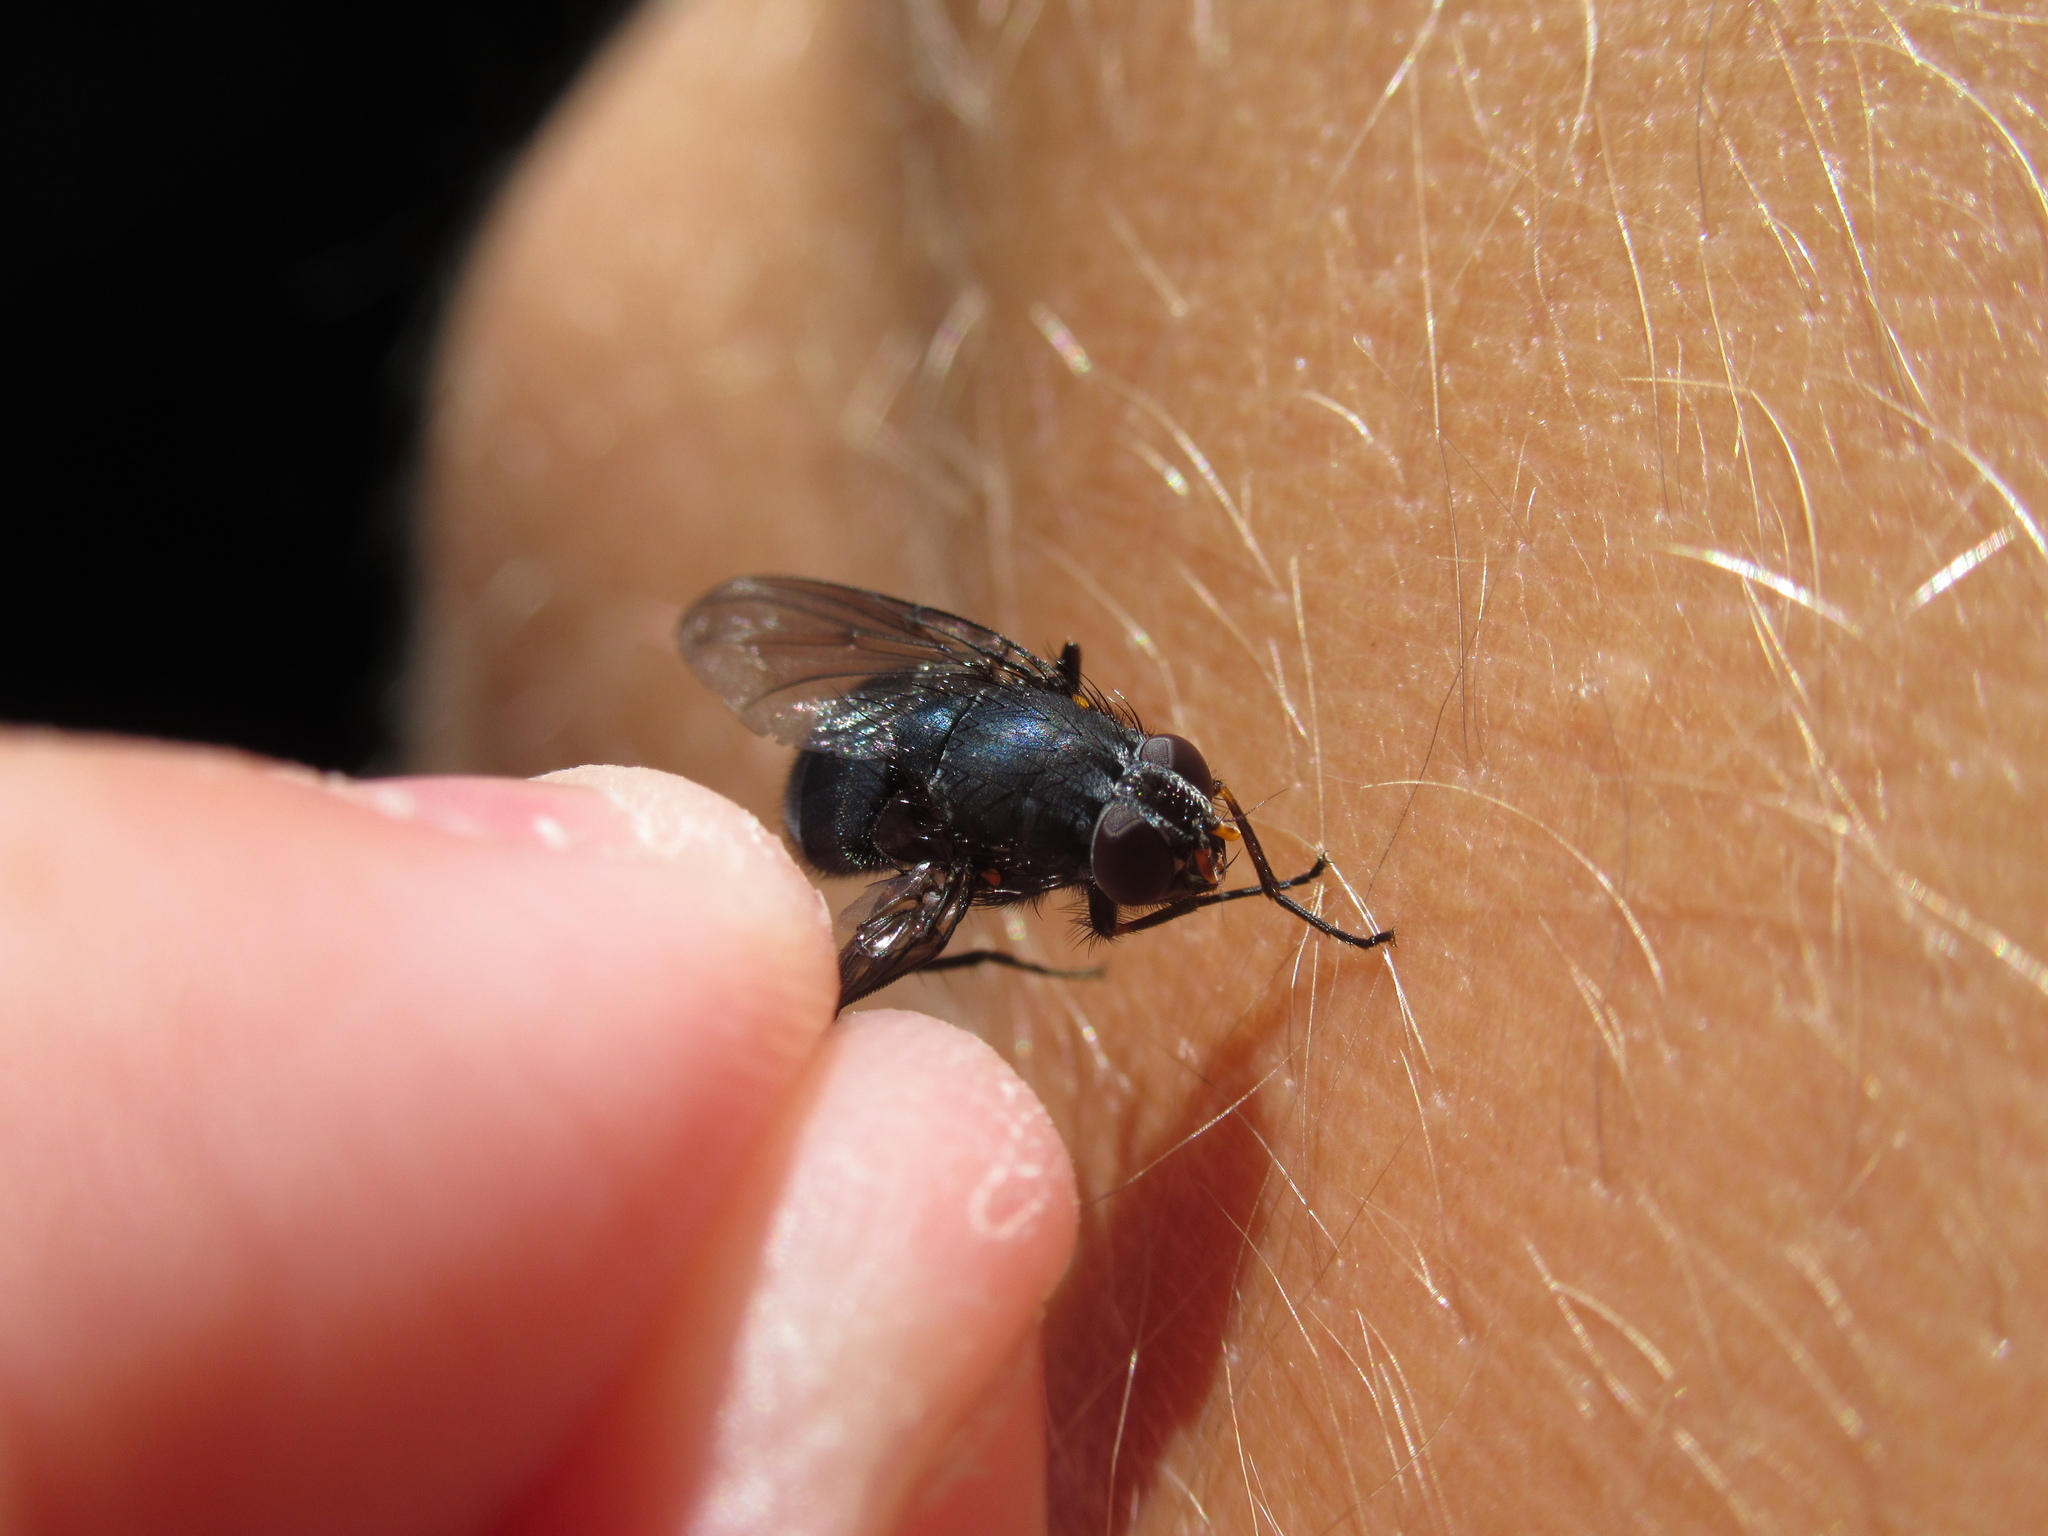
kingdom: Animalia
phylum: Arthropoda
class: Insecta
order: Diptera
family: Muscidae
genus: Calliphoroides
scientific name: Calliphoroides antennatis
